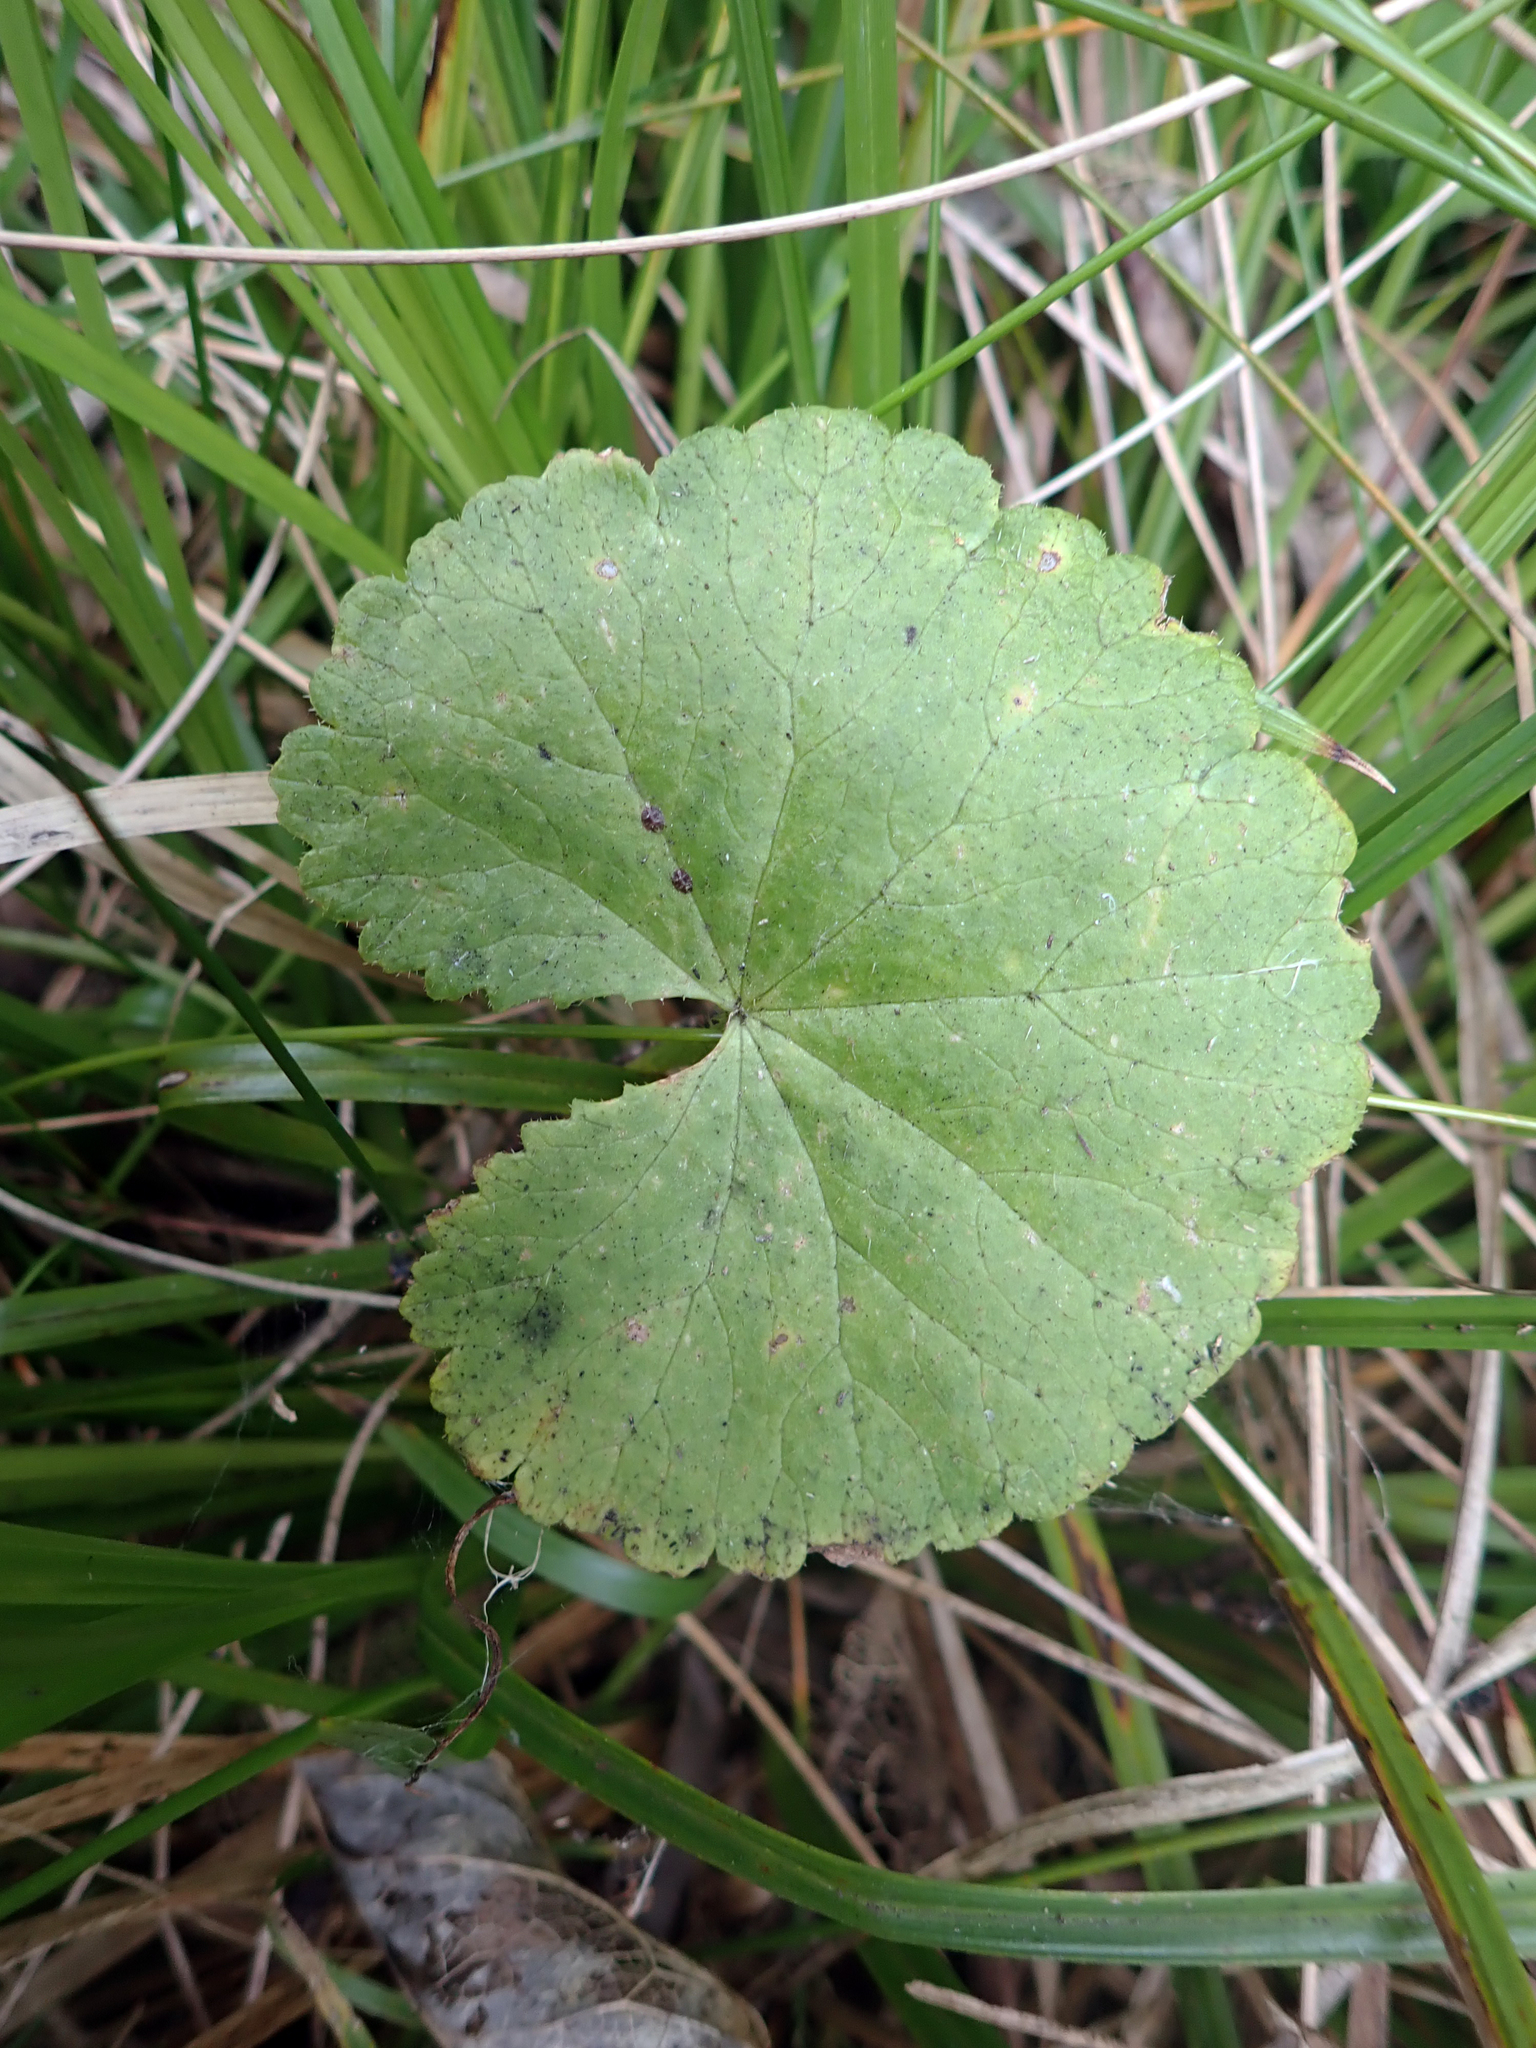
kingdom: Plantae
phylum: Tracheophyta
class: Magnoliopsida
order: Apiales
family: Araliaceae
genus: Hydrocotyle
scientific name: Hydrocotyle robusta
